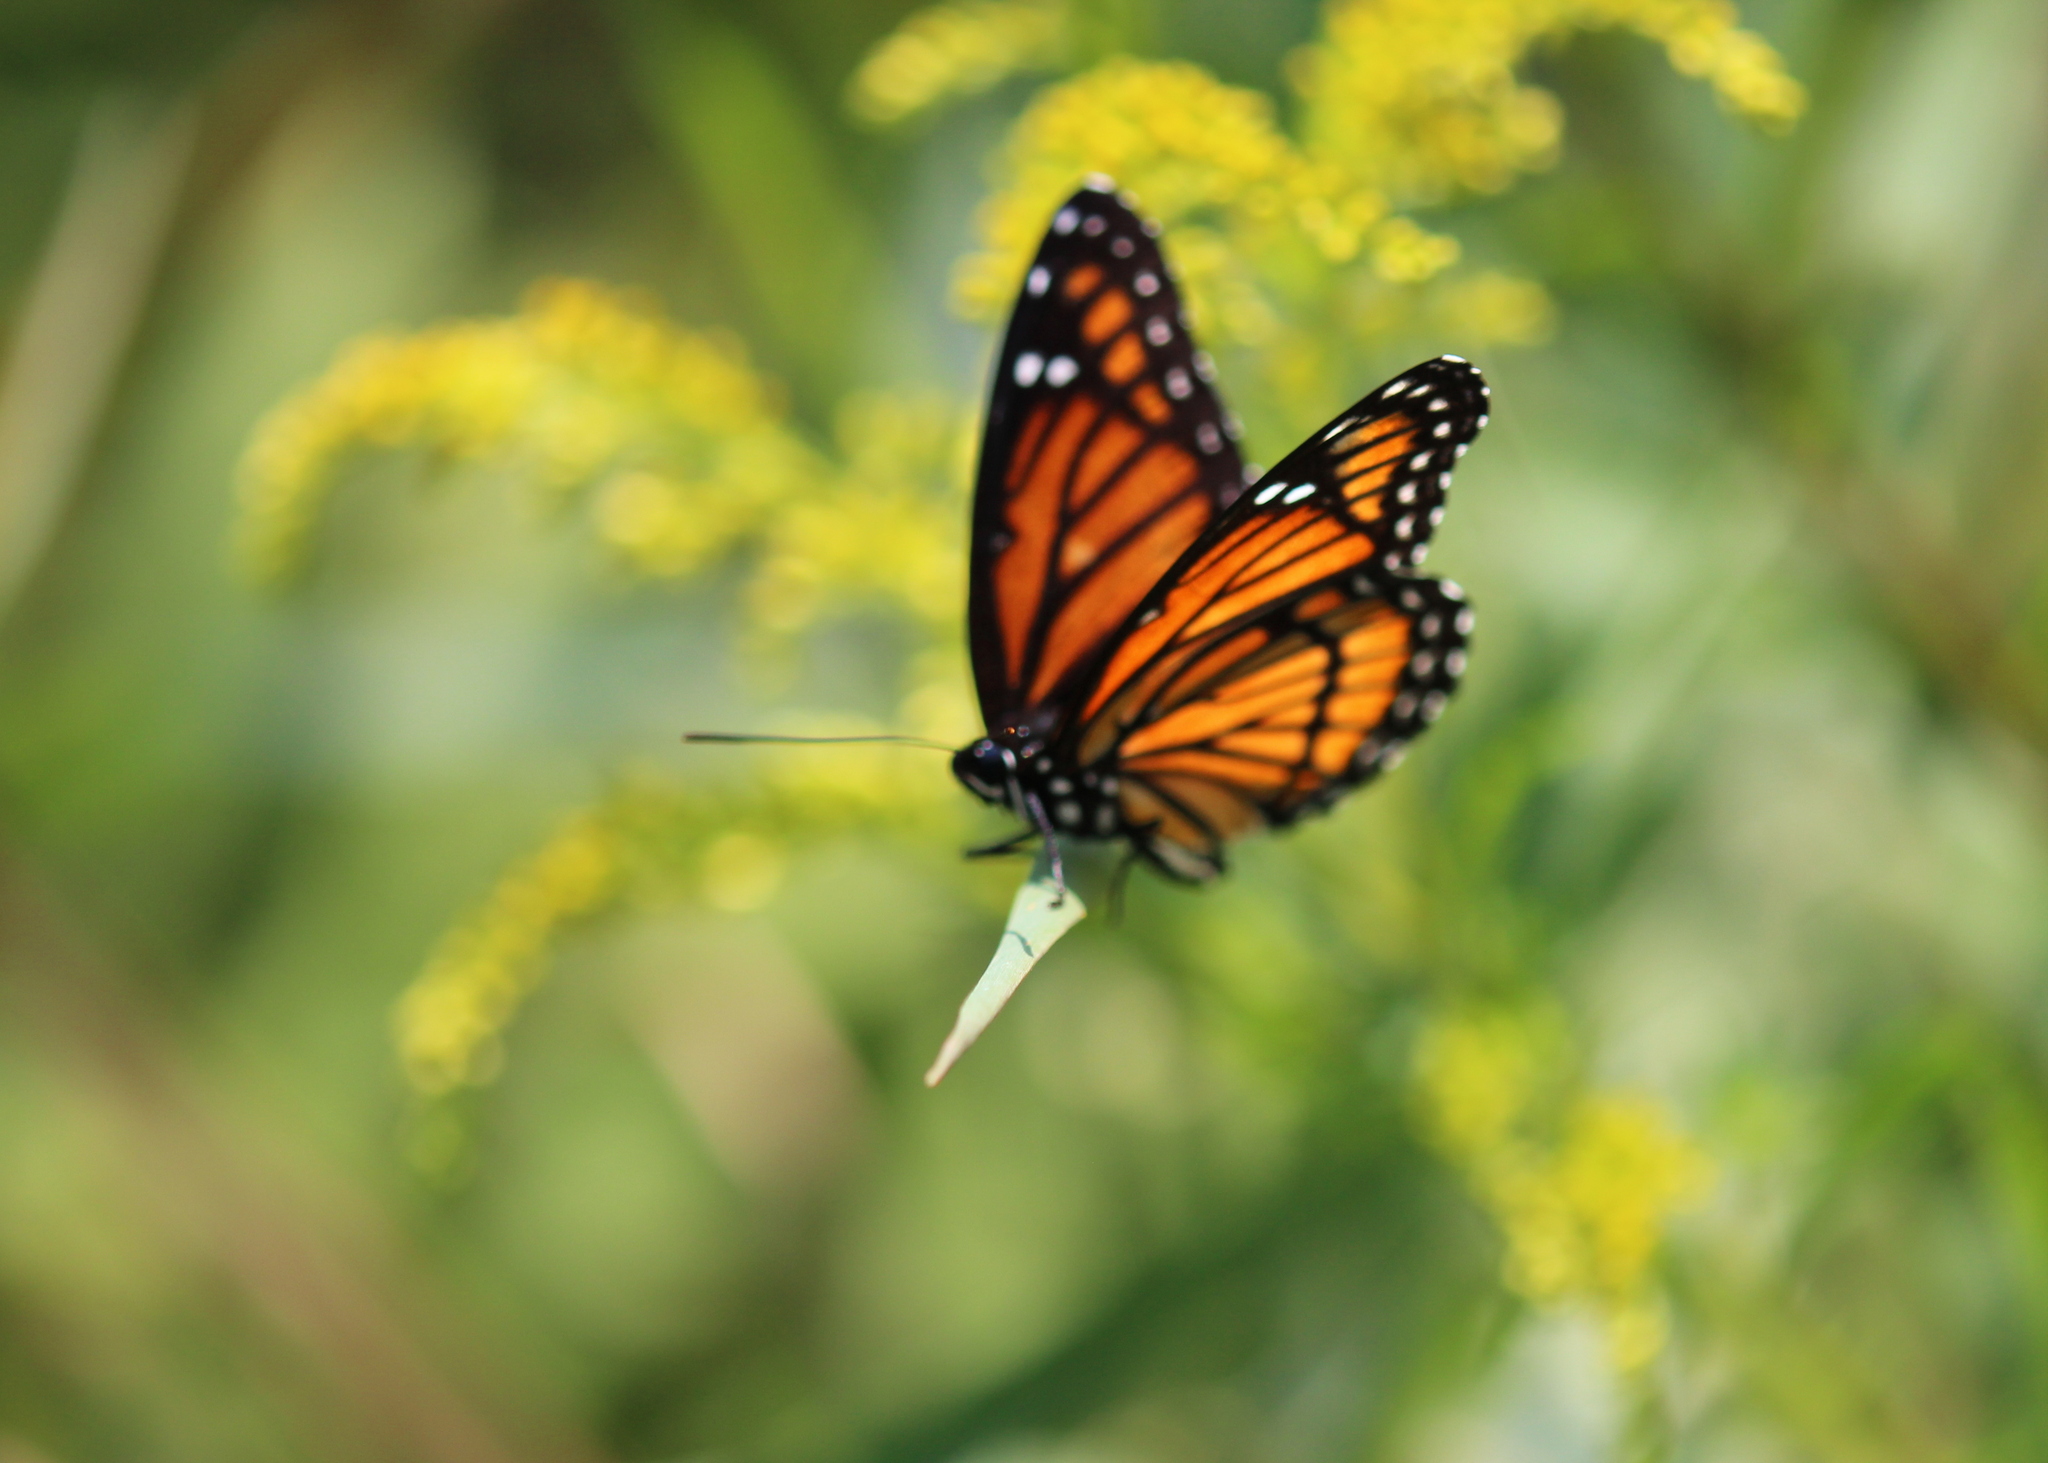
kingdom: Animalia
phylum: Arthropoda
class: Insecta
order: Lepidoptera
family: Nymphalidae
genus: Limenitis
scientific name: Limenitis archippus
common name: Viceroy
